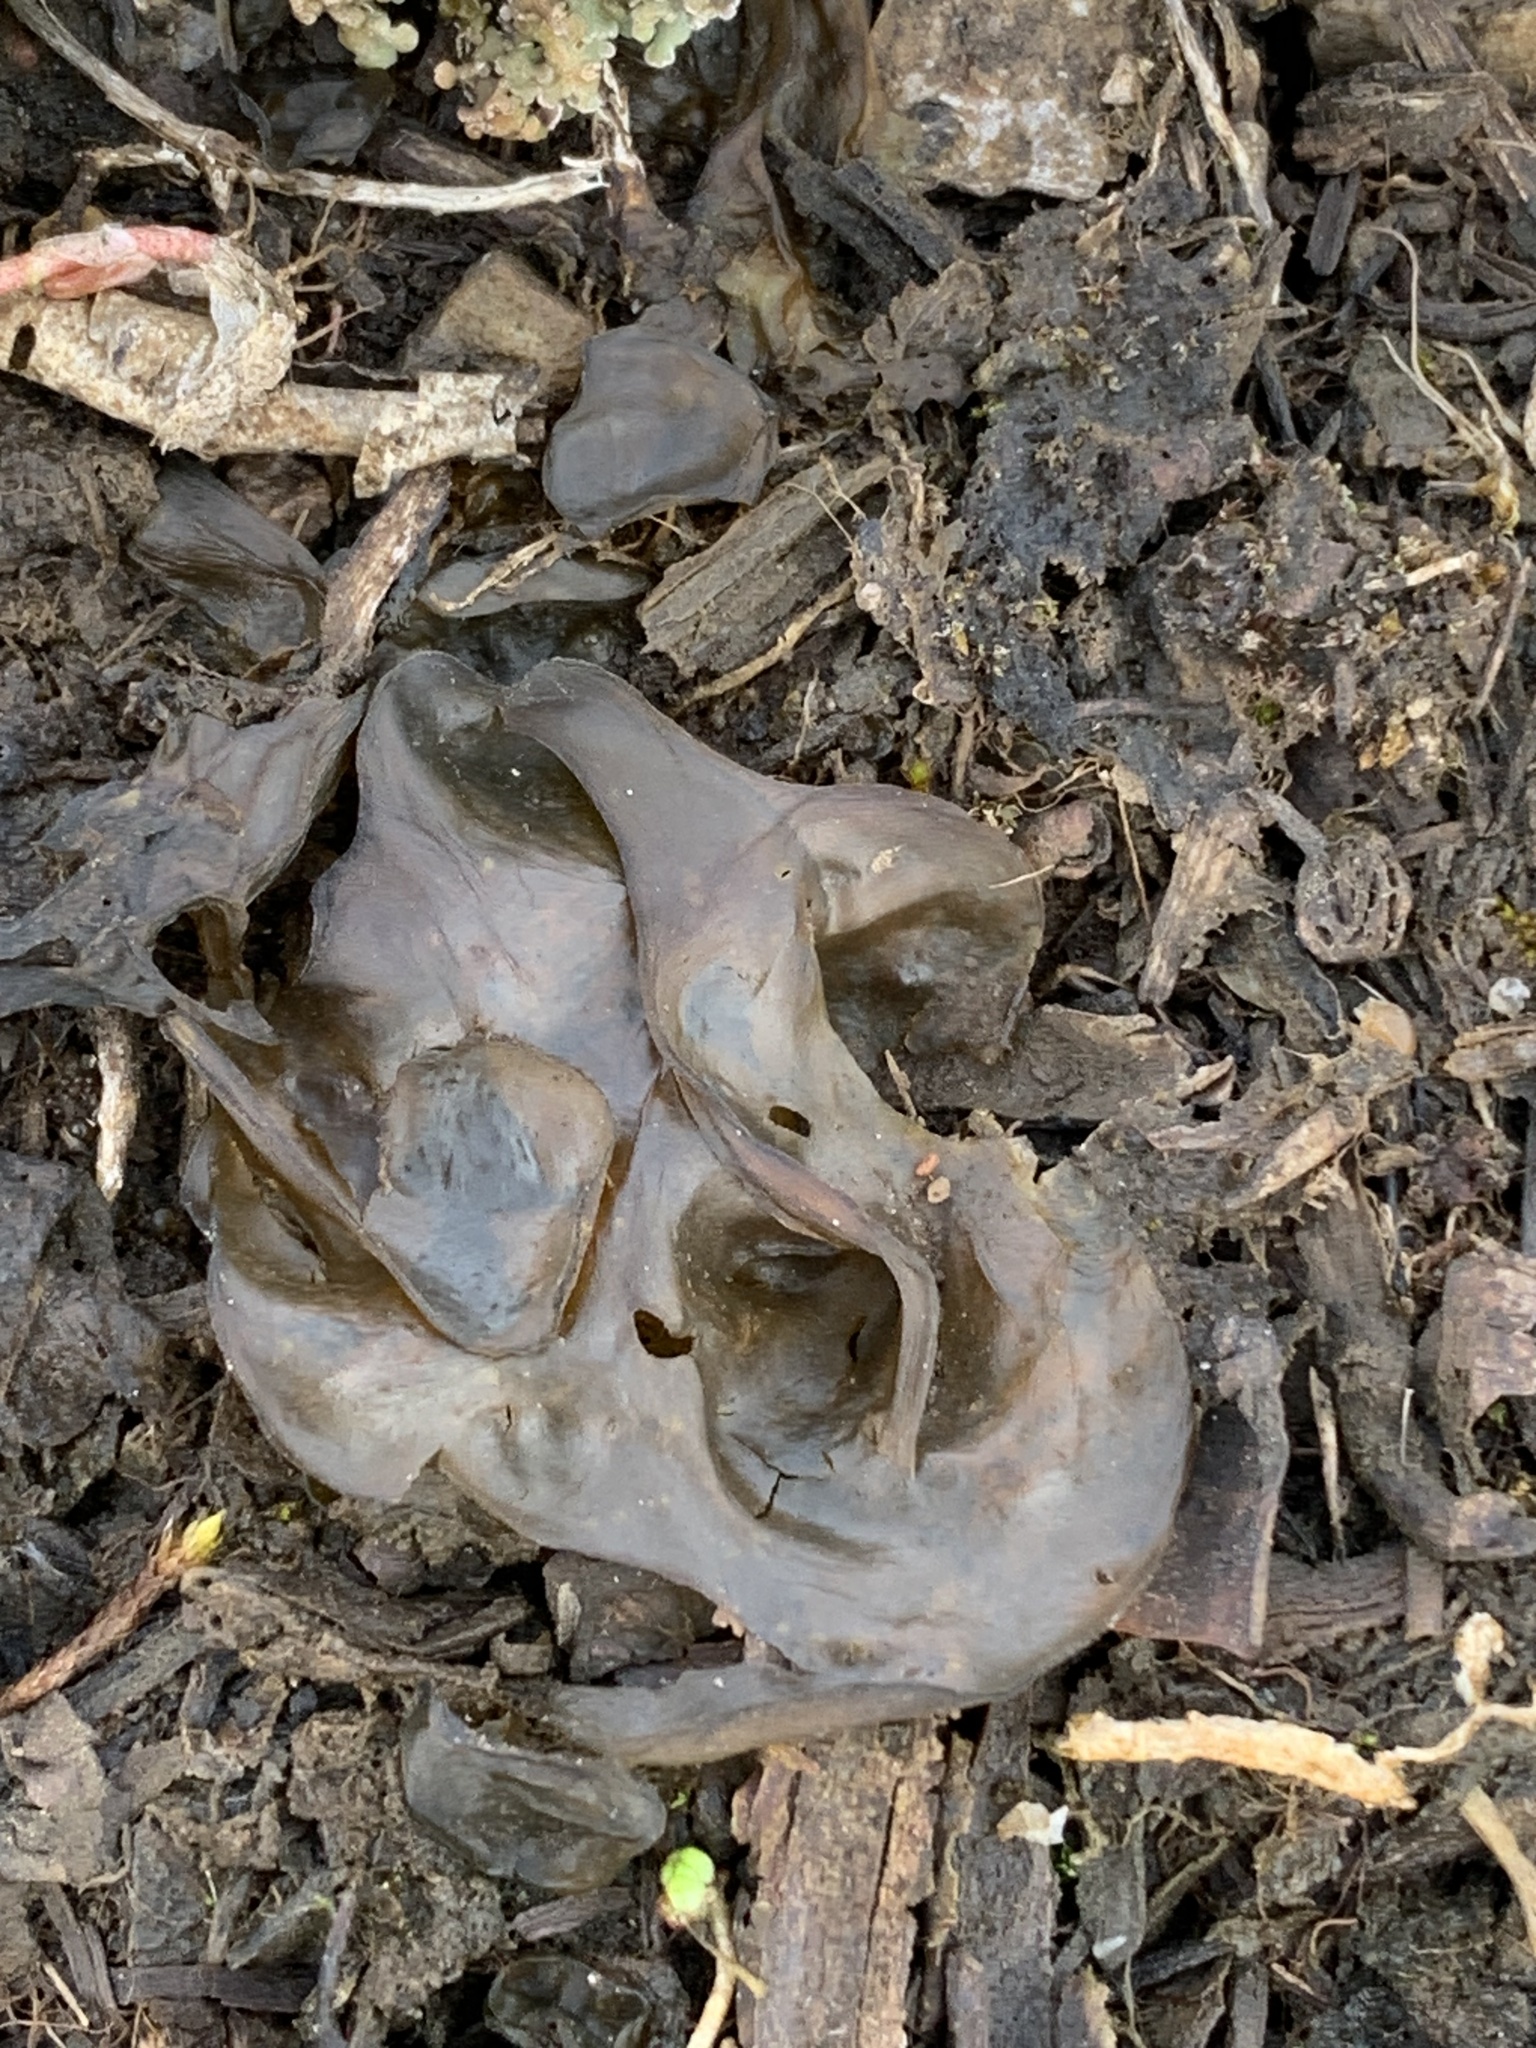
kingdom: Bacteria
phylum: Cyanobacteria
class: Cyanobacteriia
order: Cyanobacteriales
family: Nostocaceae
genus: Nostoc
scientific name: Nostoc commune
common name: Star jelly
